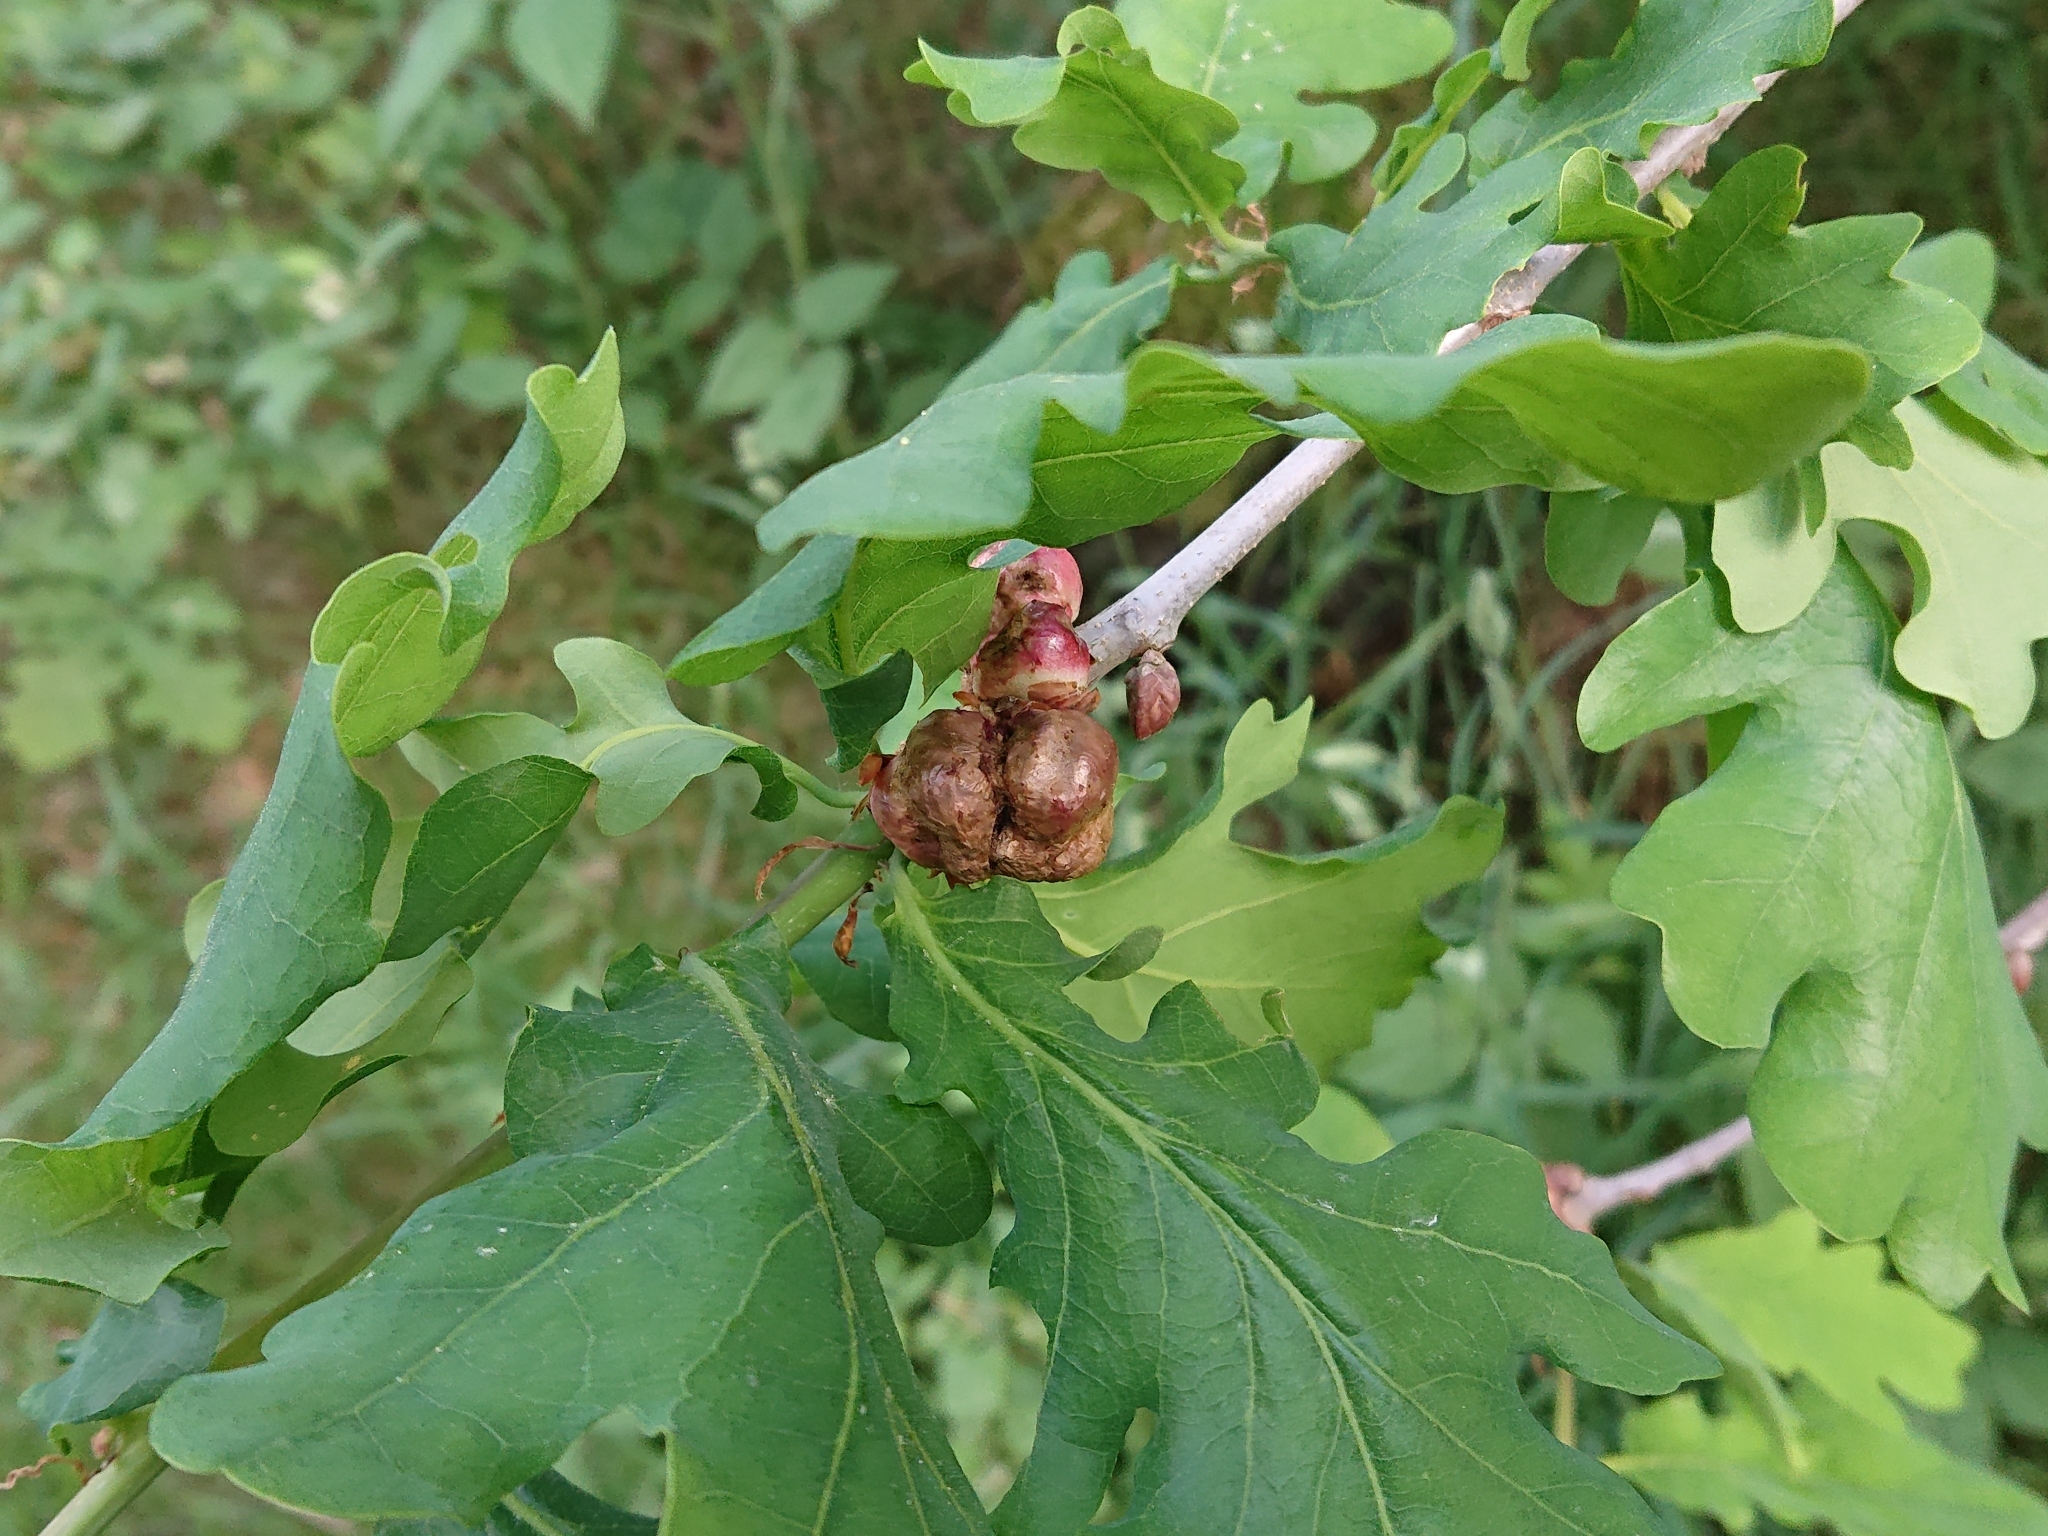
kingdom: Animalia
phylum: Arthropoda
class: Insecta
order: Hymenoptera
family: Cynipidae
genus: Biorhiza
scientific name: Biorhiza pallida
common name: Oak apple
